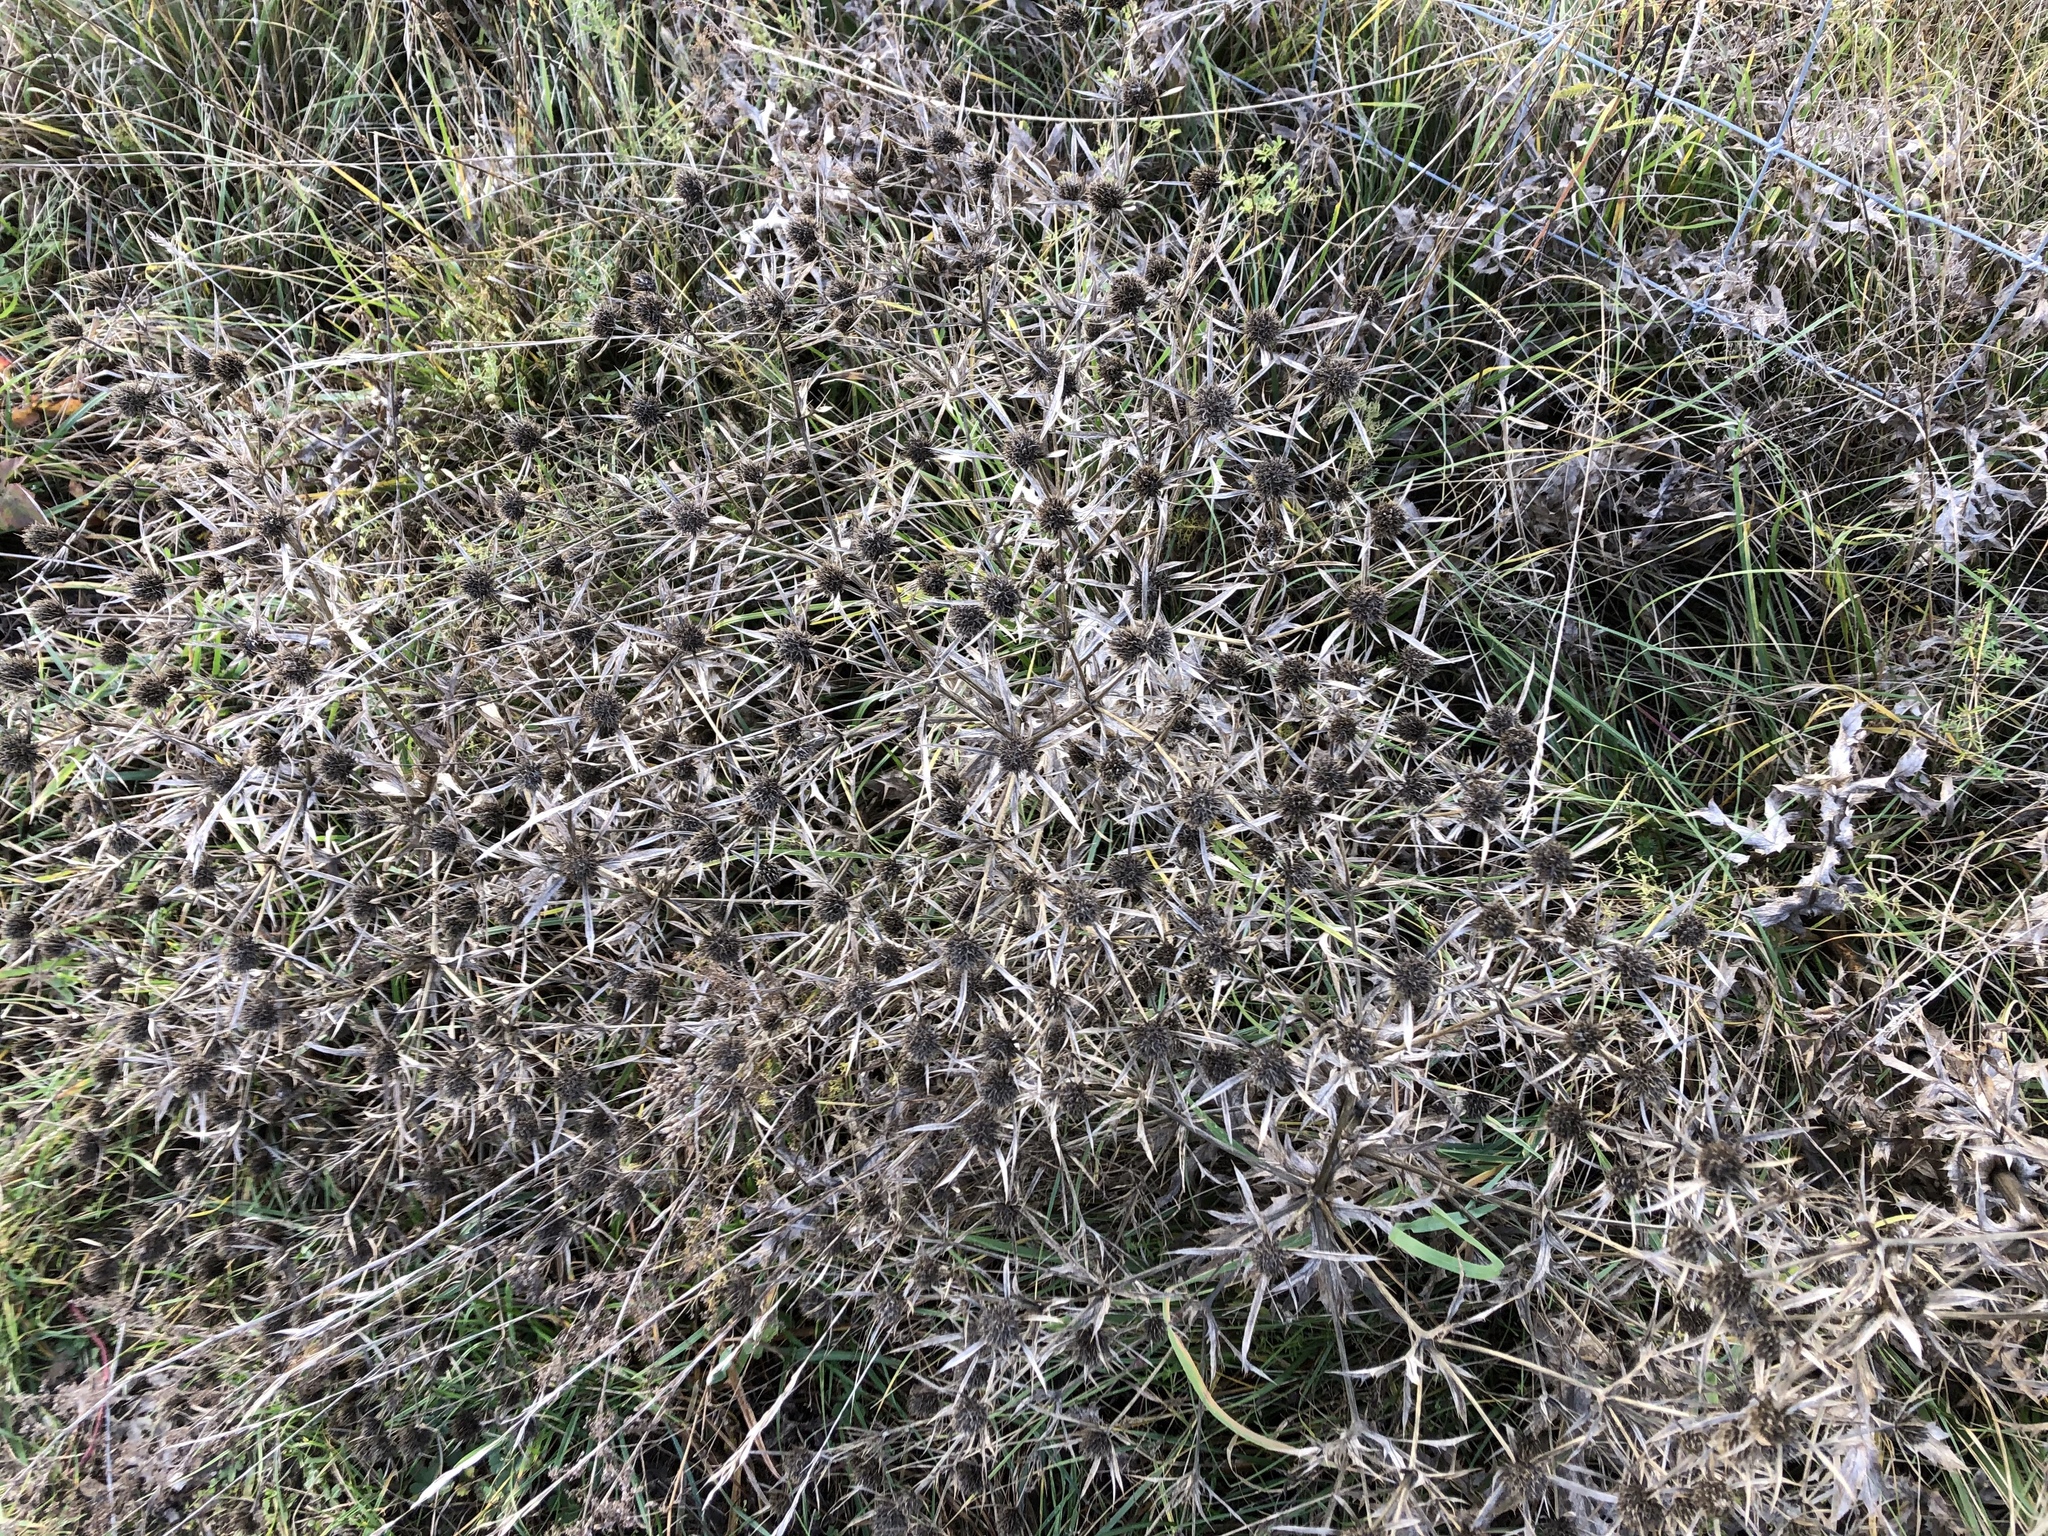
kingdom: Plantae
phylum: Tracheophyta
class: Magnoliopsida
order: Apiales
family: Apiaceae
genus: Eryngium
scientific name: Eryngium campestre
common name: Field eryngo
